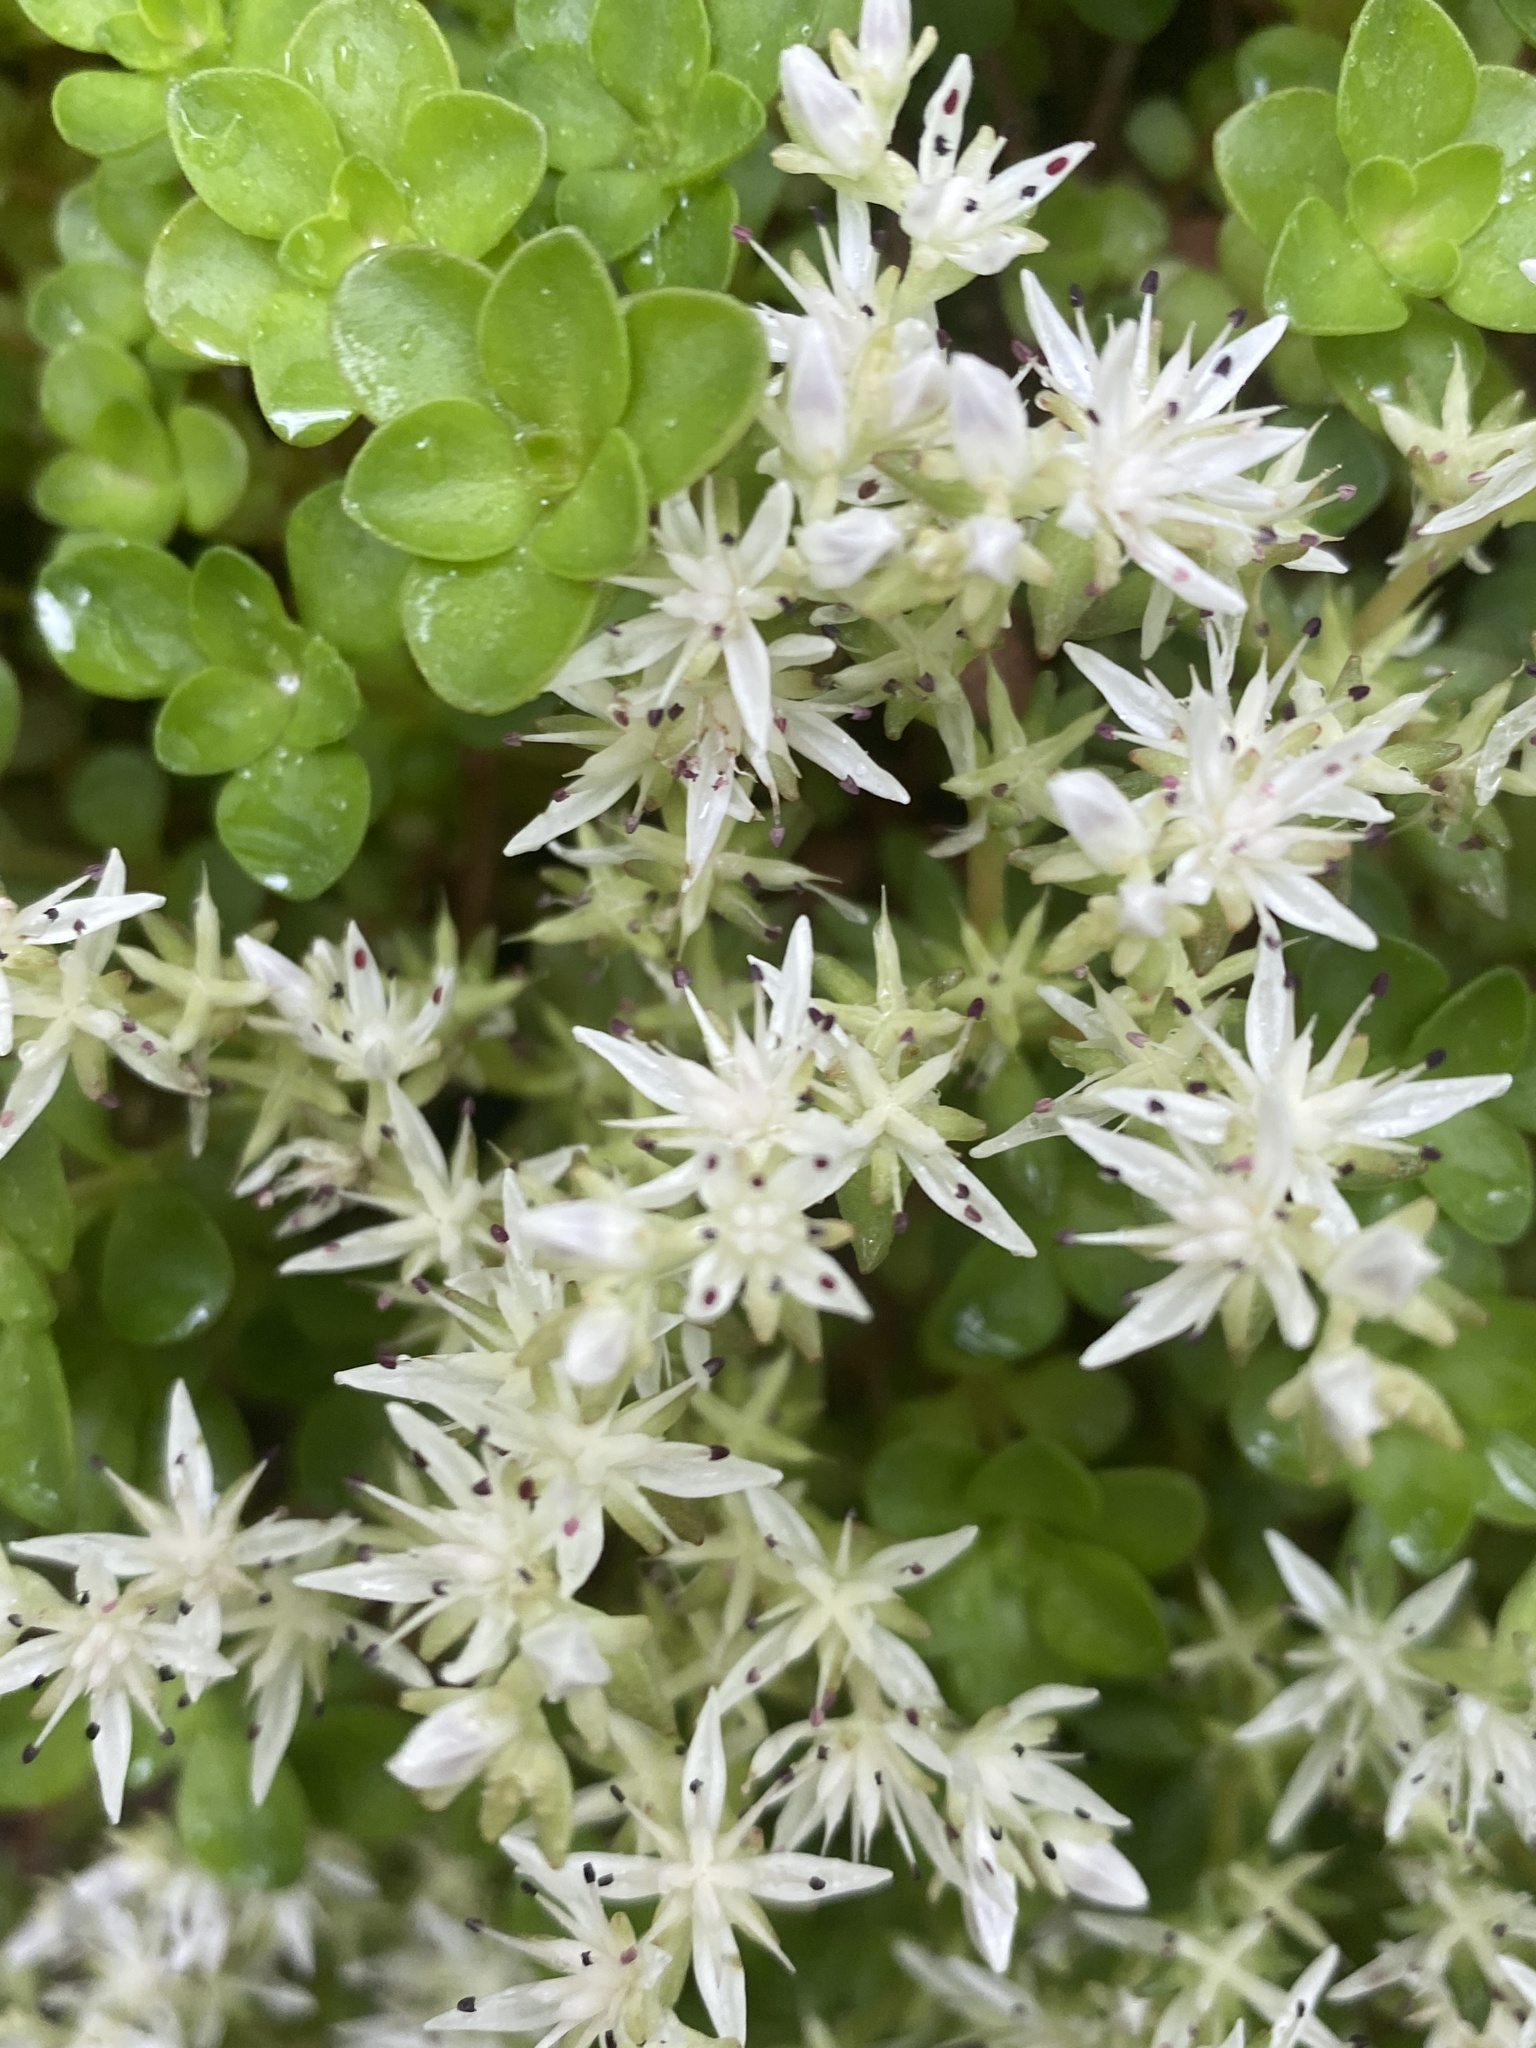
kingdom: Plantae
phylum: Tracheophyta
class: Magnoliopsida
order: Saxifragales
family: Crassulaceae
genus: Sedum
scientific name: Sedum ternatum
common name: Wild stonecrop
